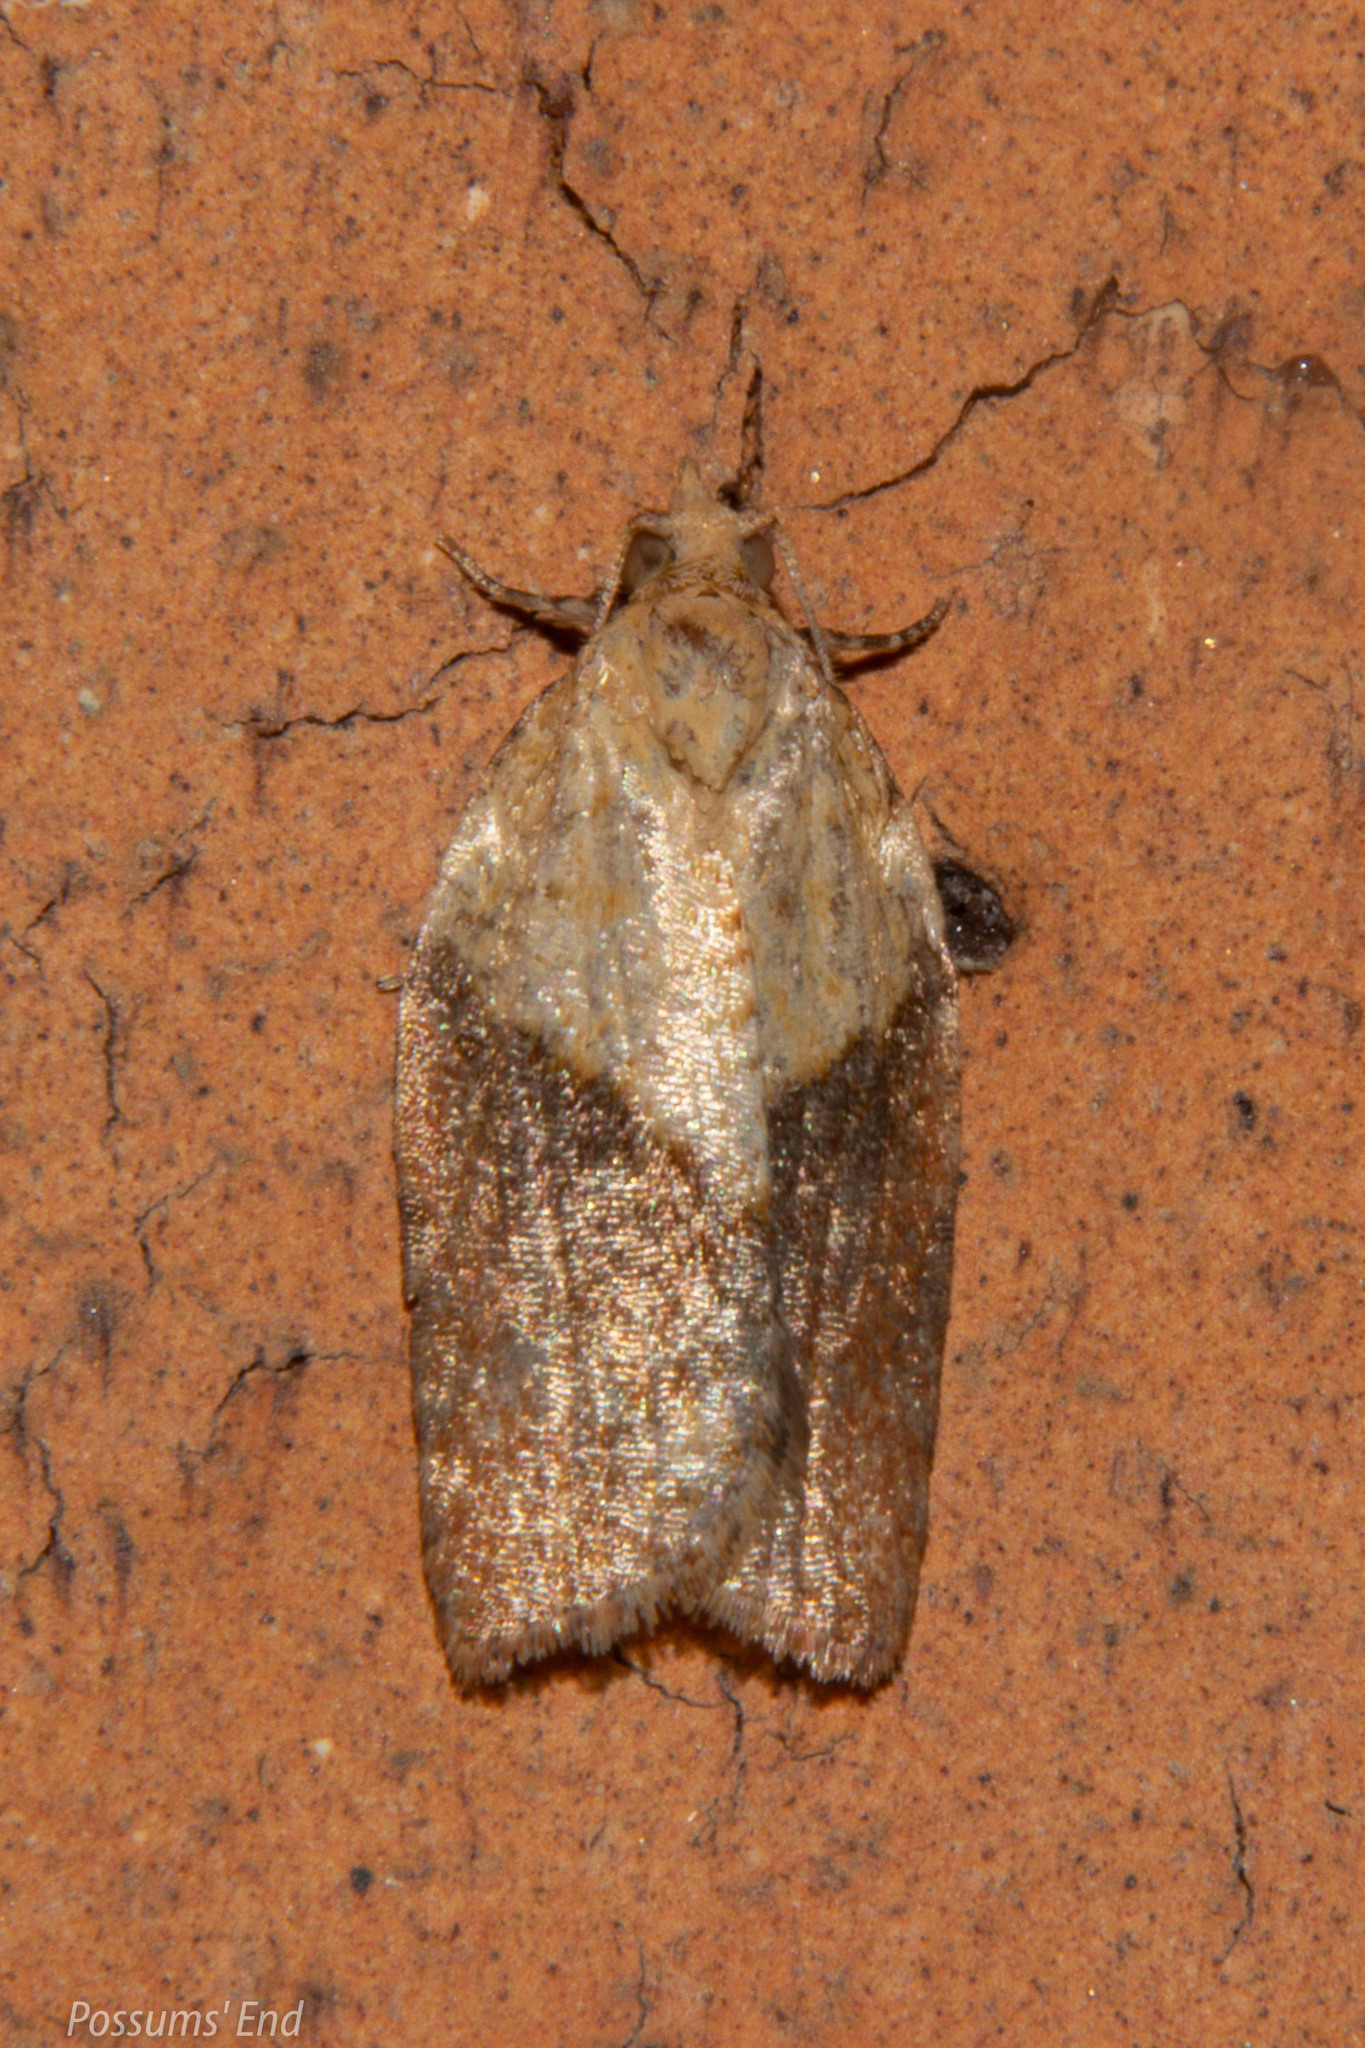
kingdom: Animalia
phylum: Arthropoda
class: Insecta
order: Lepidoptera
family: Tortricidae
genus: Epiphyas
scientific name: Epiphyas postvittana
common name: Light brown apple moth
